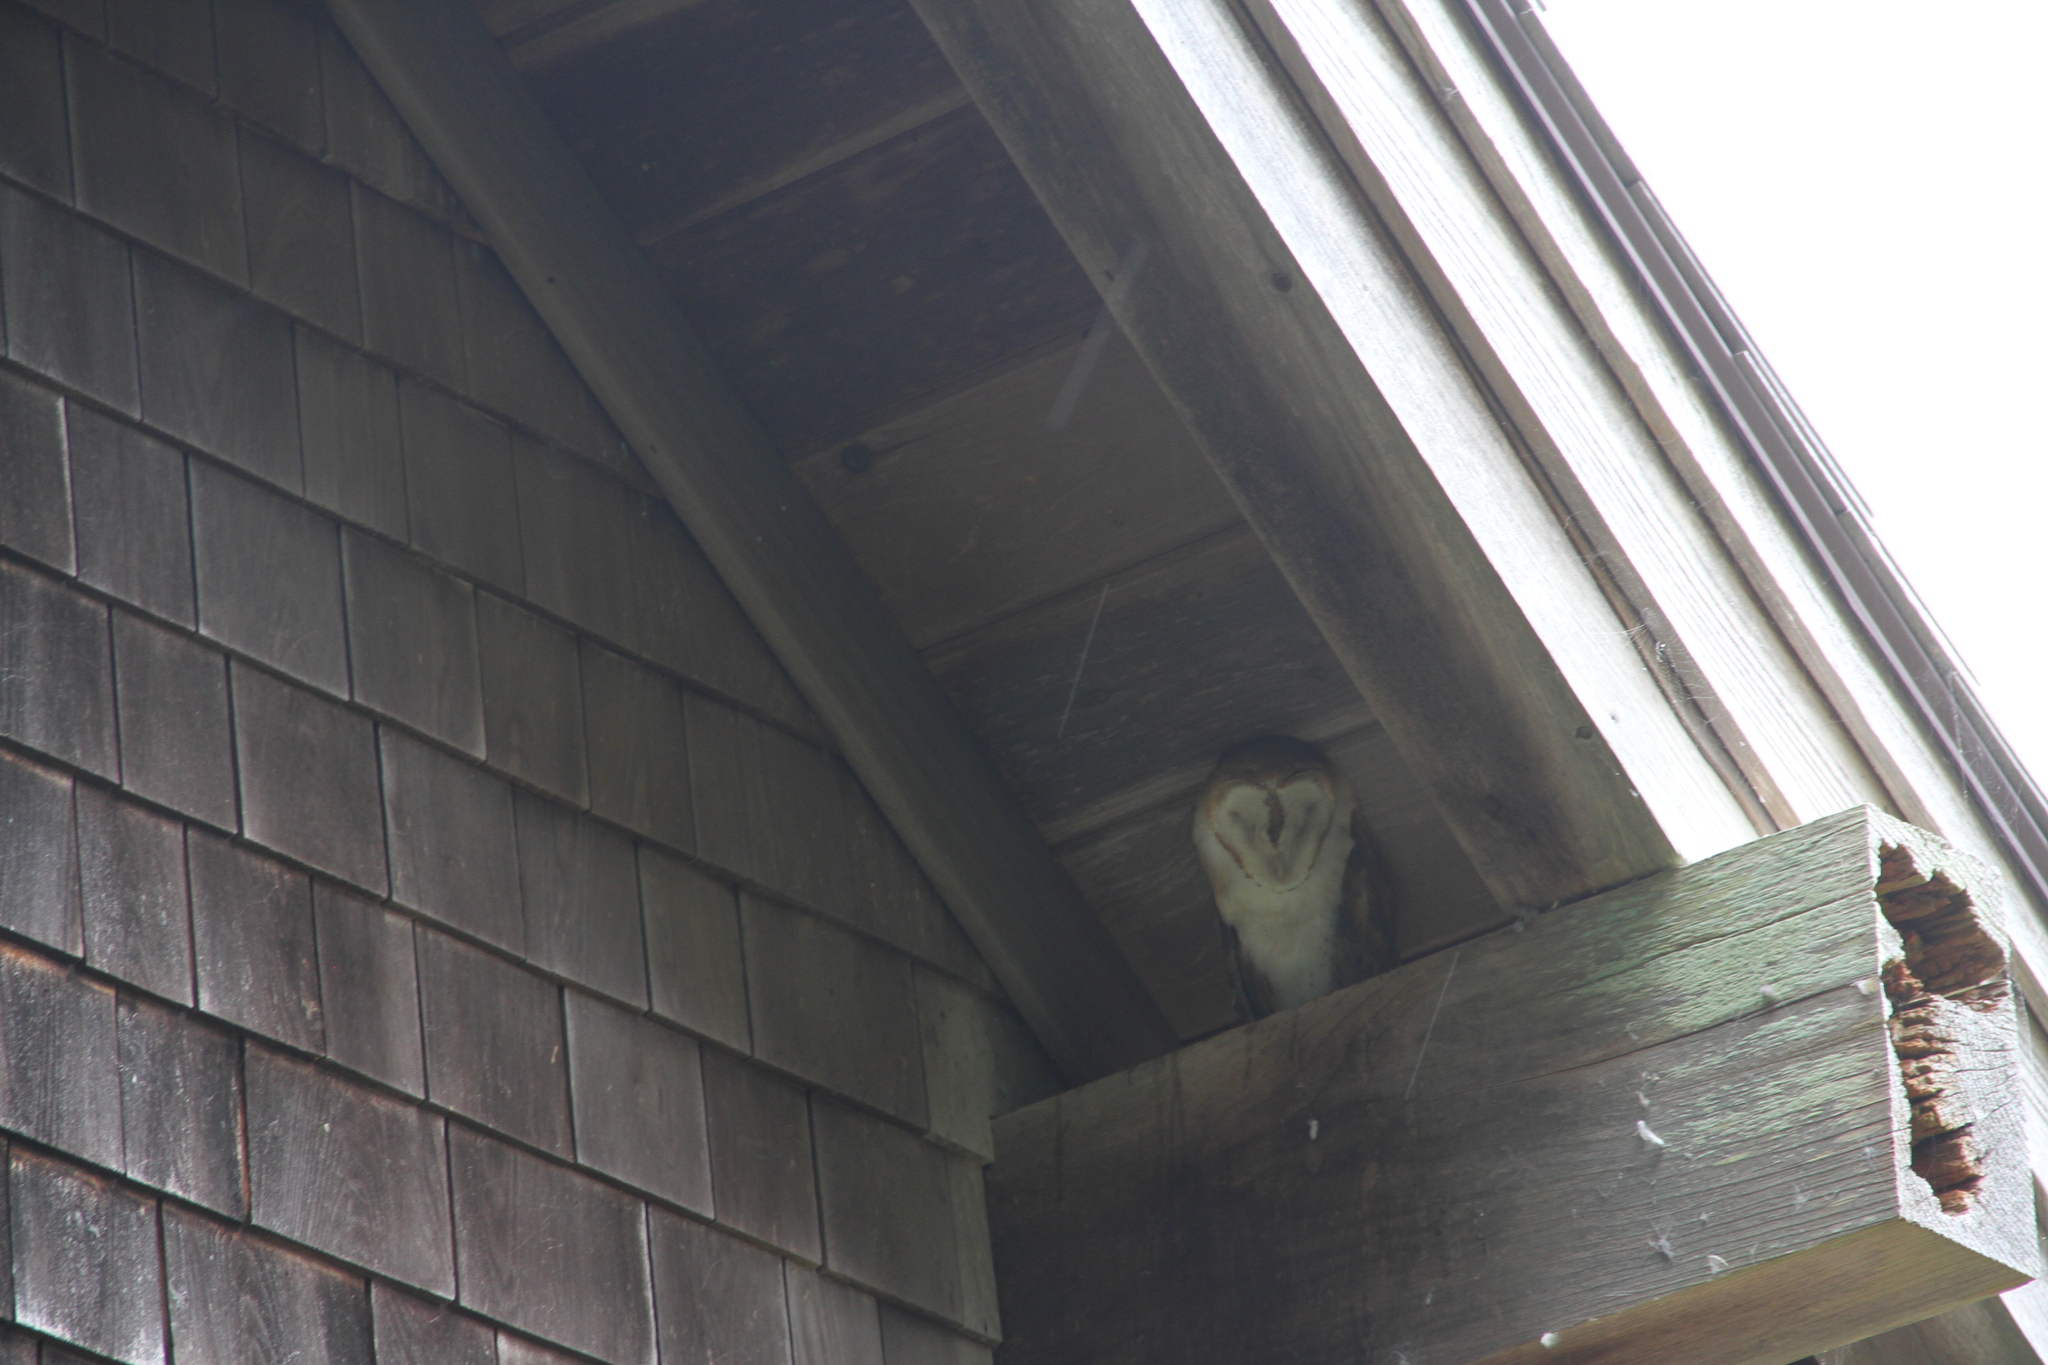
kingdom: Animalia
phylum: Chordata
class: Aves
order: Strigiformes
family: Tytonidae
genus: Tyto
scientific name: Tyto alba
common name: Barn owl
